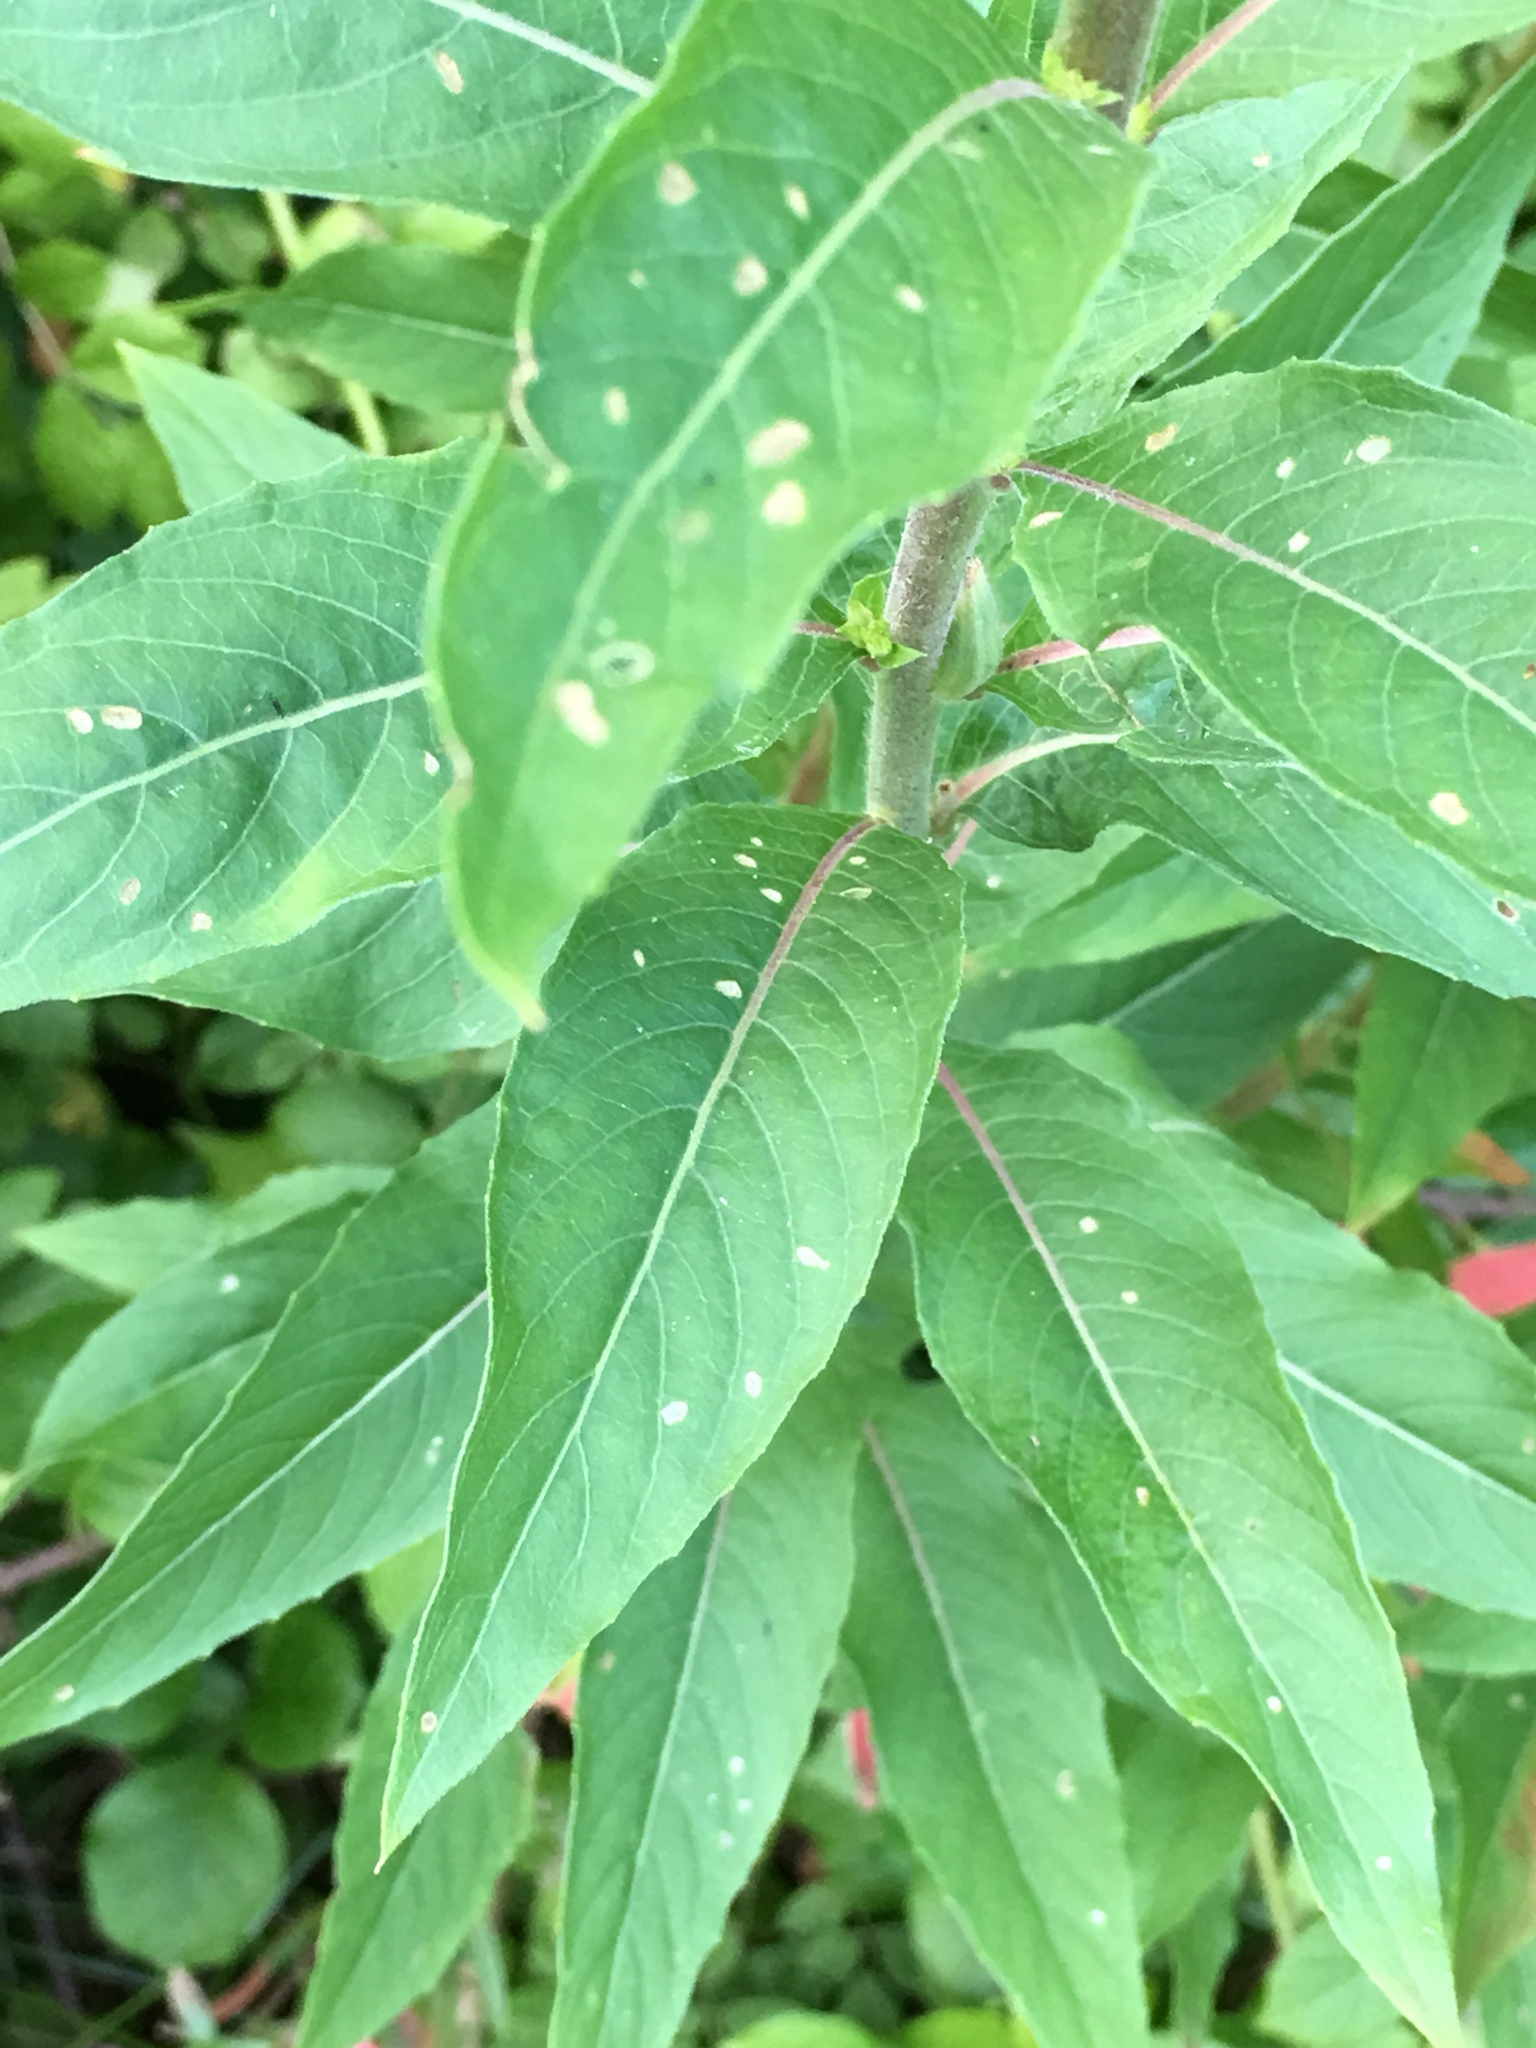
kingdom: Plantae
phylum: Tracheophyta
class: Magnoliopsida
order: Myrtales
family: Onagraceae
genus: Oenothera
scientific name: Oenothera biennis
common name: Common evening-primrose
